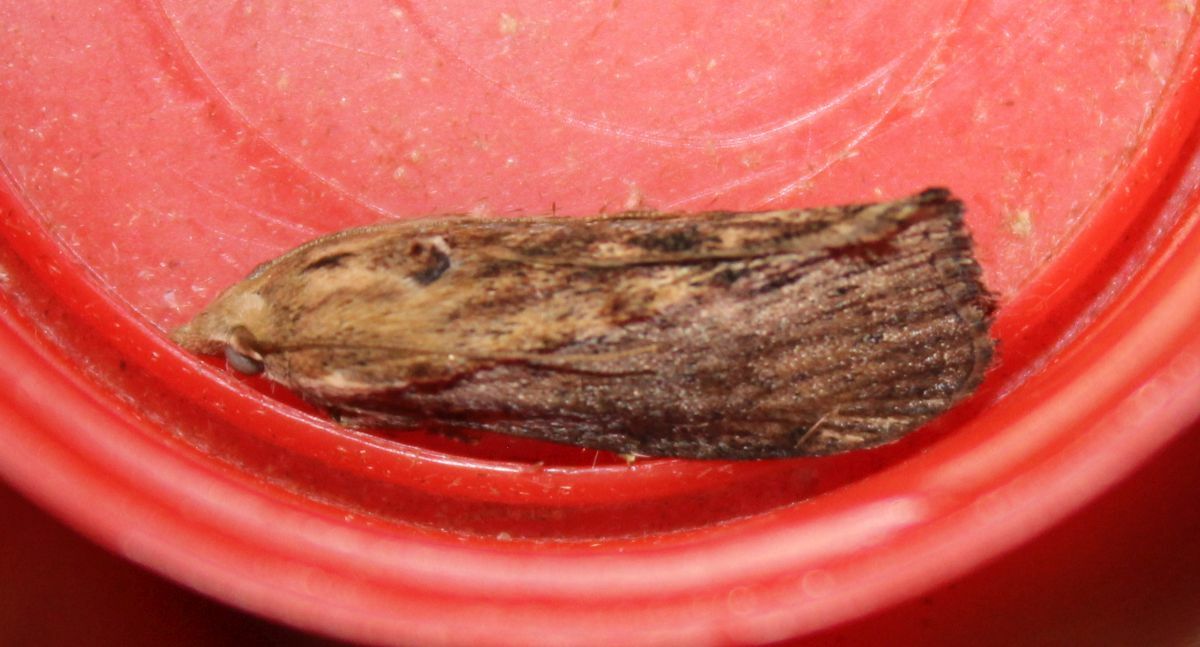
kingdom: Animalia
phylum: Arthropoda
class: Insecta
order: Lepidoptera
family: Pyralidae
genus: Galleria
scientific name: Galleria mellonella
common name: Greater wax moth
